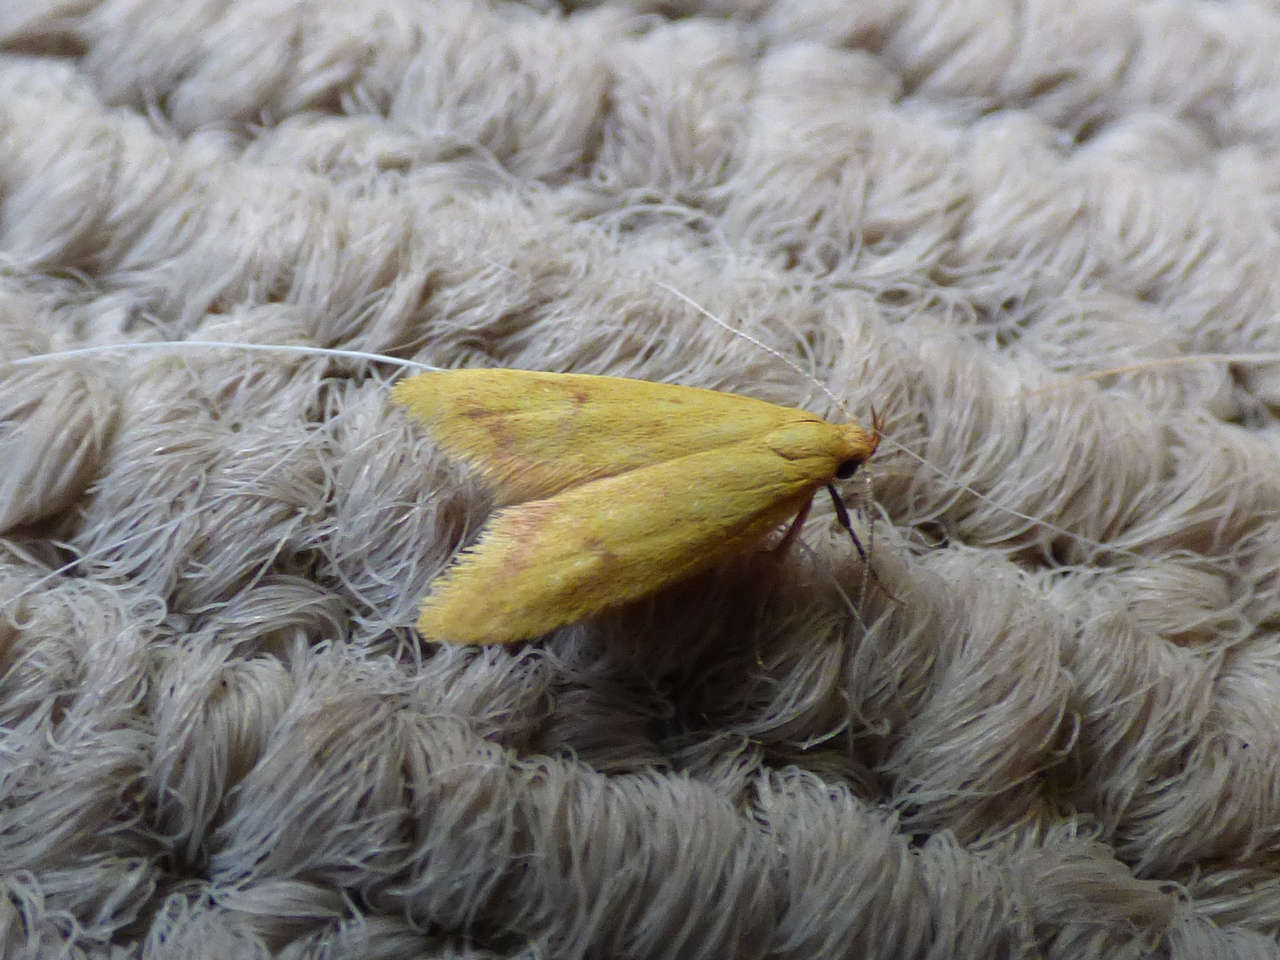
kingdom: Animalia
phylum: Arthropoda
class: Insecta
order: Lepidoptera
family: Oecophoridae
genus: Aeolothapsa
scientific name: Aeolothapsa malacella
